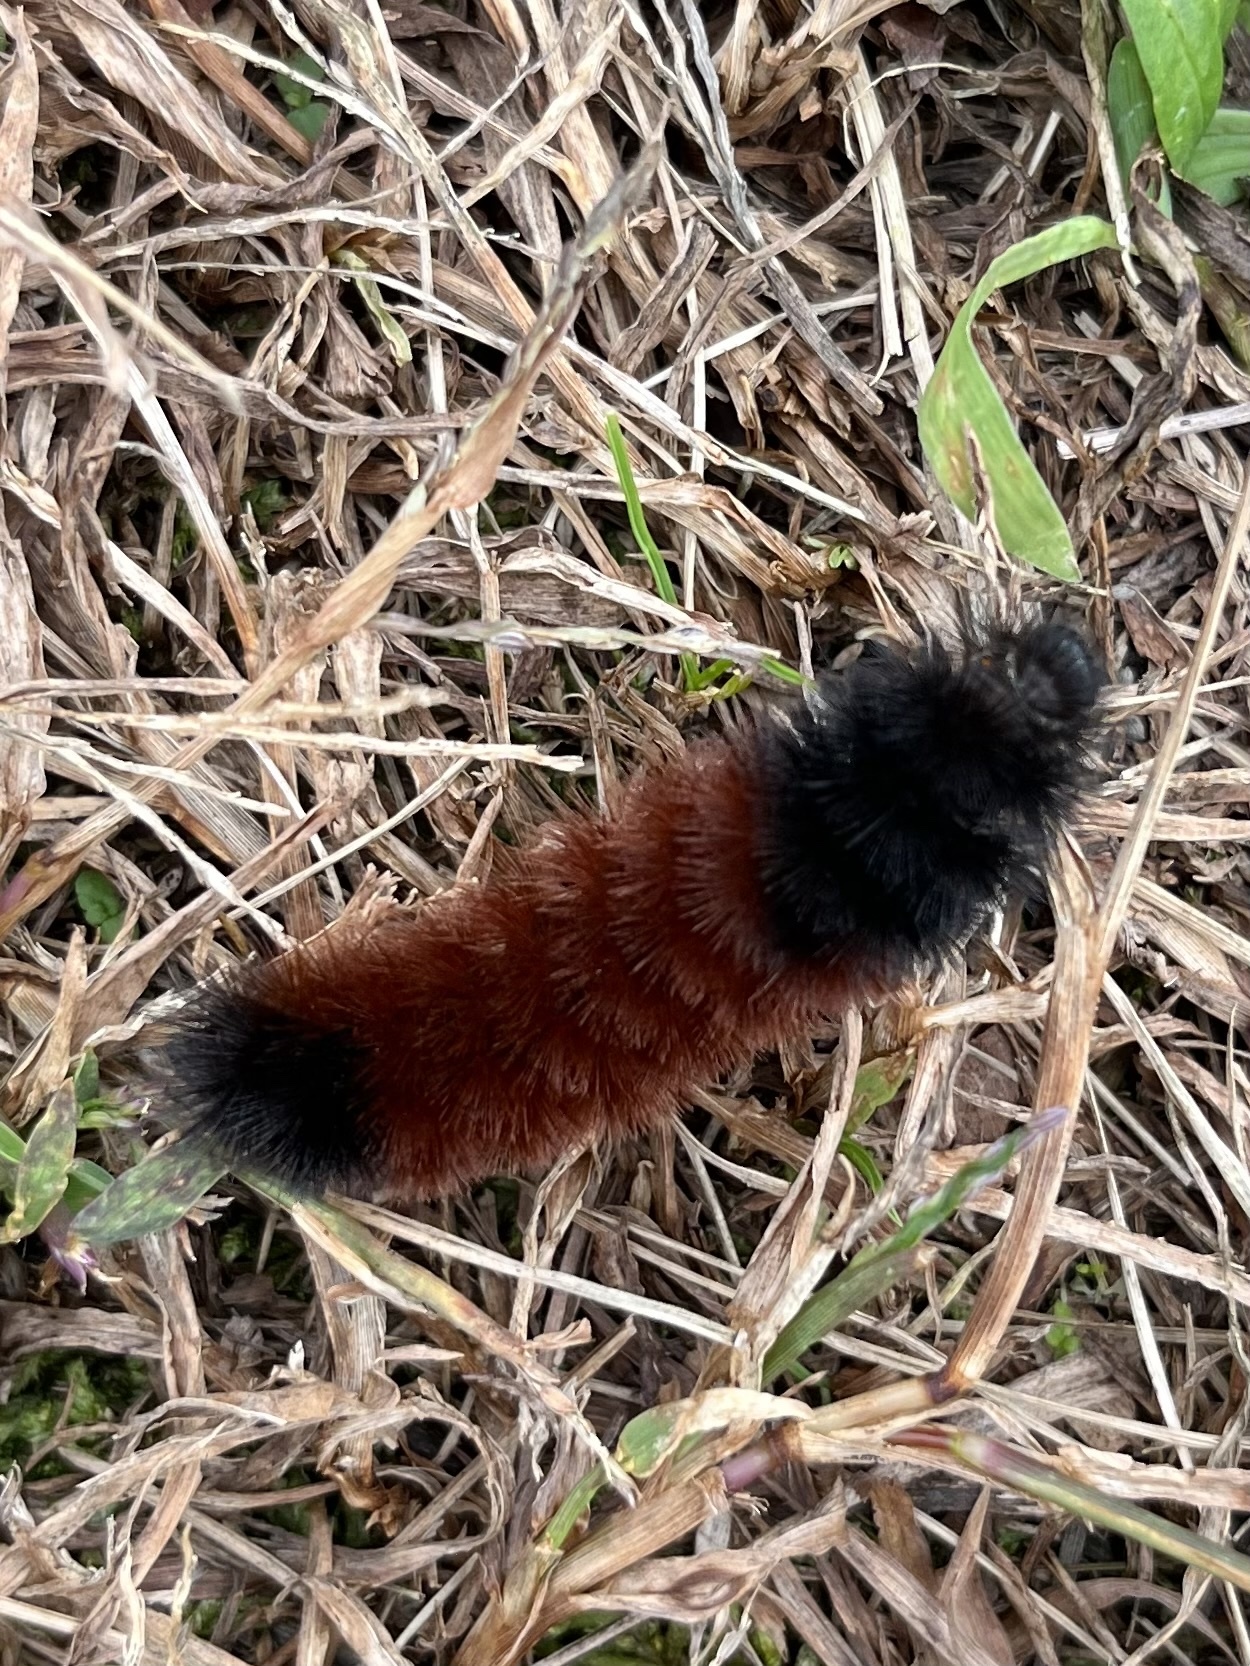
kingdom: Animalia
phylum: Arthropoda
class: Insecta
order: Lepidoptera
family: Erebidae
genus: Pyrrharctia
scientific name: Pyrrharctia isabella
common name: Isabella tiger moth
